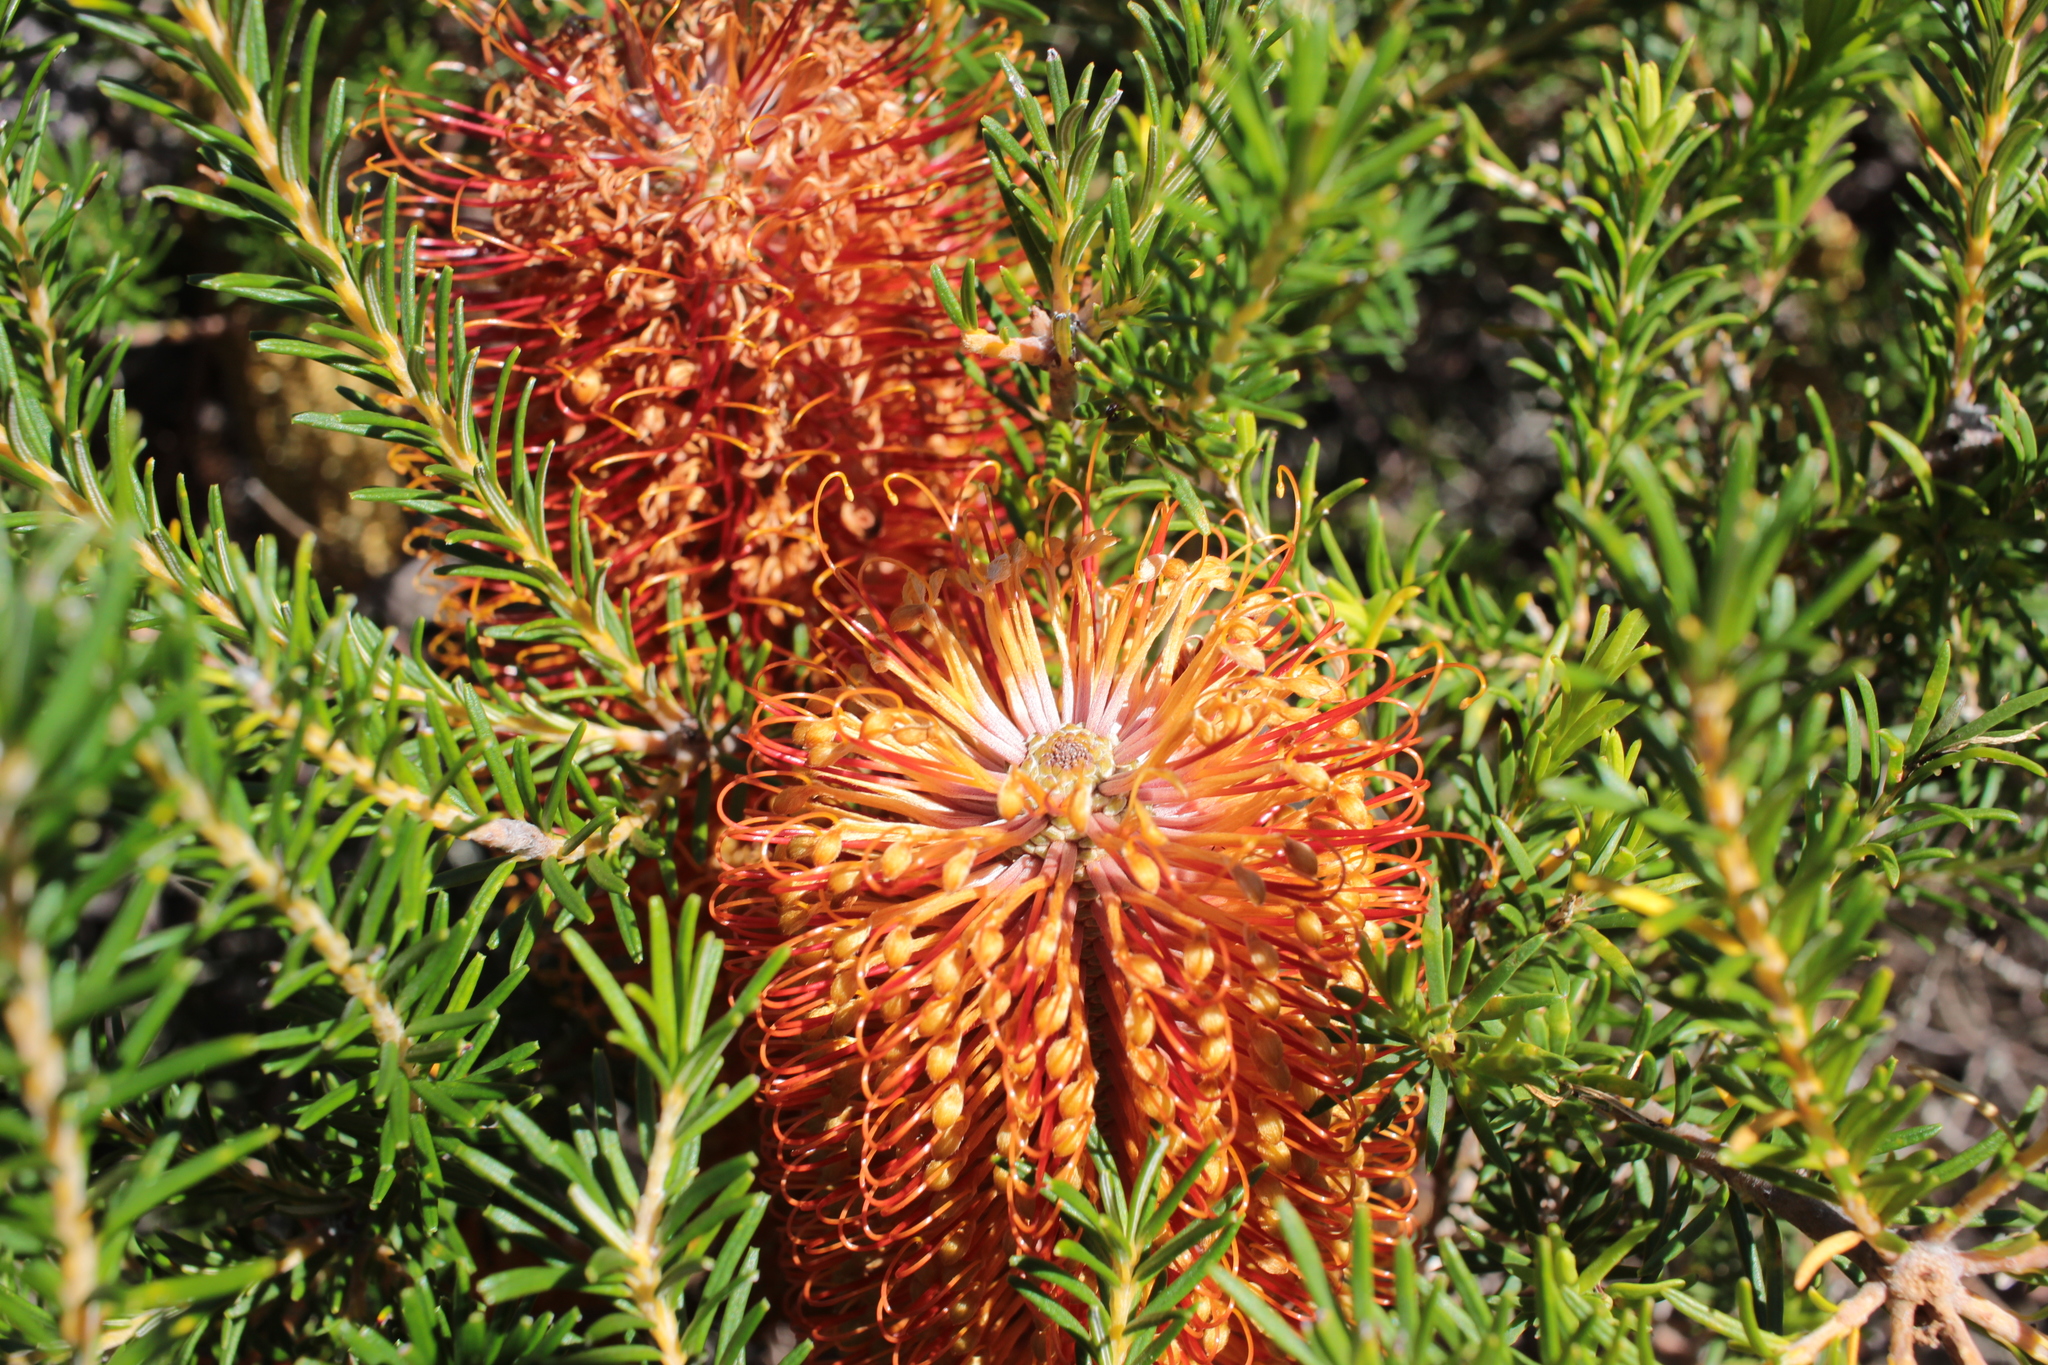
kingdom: Plantae
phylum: Tracheophyta
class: Magnoliopsida
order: Proteales
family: Proteaceae
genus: Banksia
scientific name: Banksia ericifolia
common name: Heath-leaf banksia
